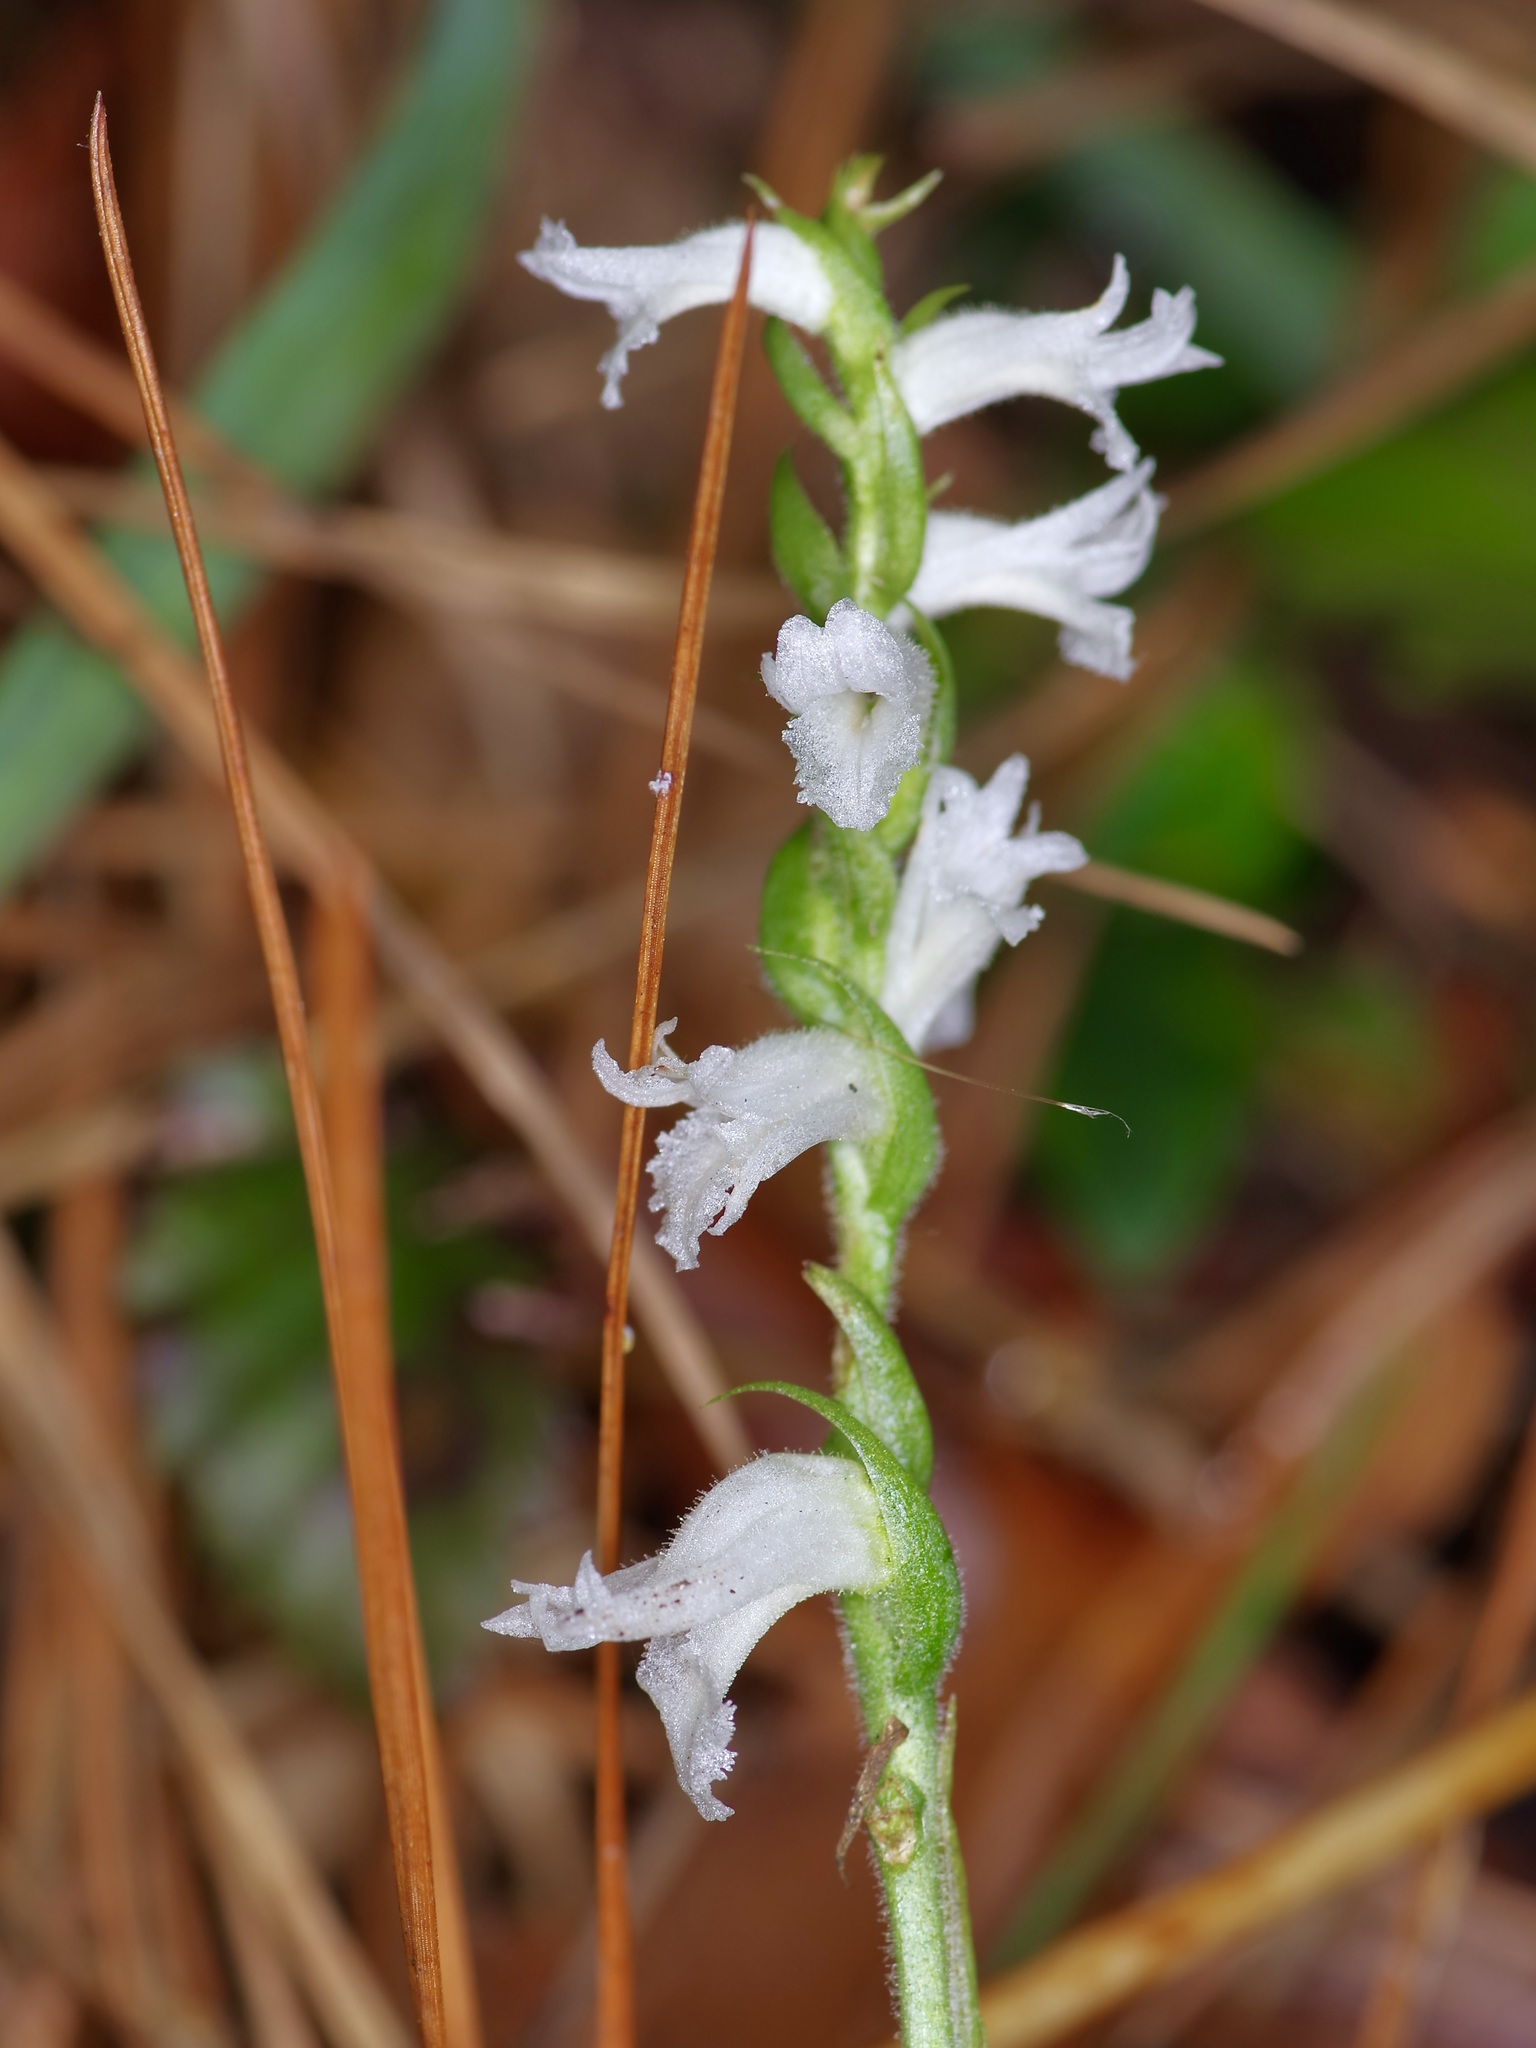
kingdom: Plantae
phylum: Tracheophyta
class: Liliopsida
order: Asparagales
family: Orchidaceae
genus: Spiranthes
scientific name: Spiranthes cernua
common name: Dropping ladies'-tresses
